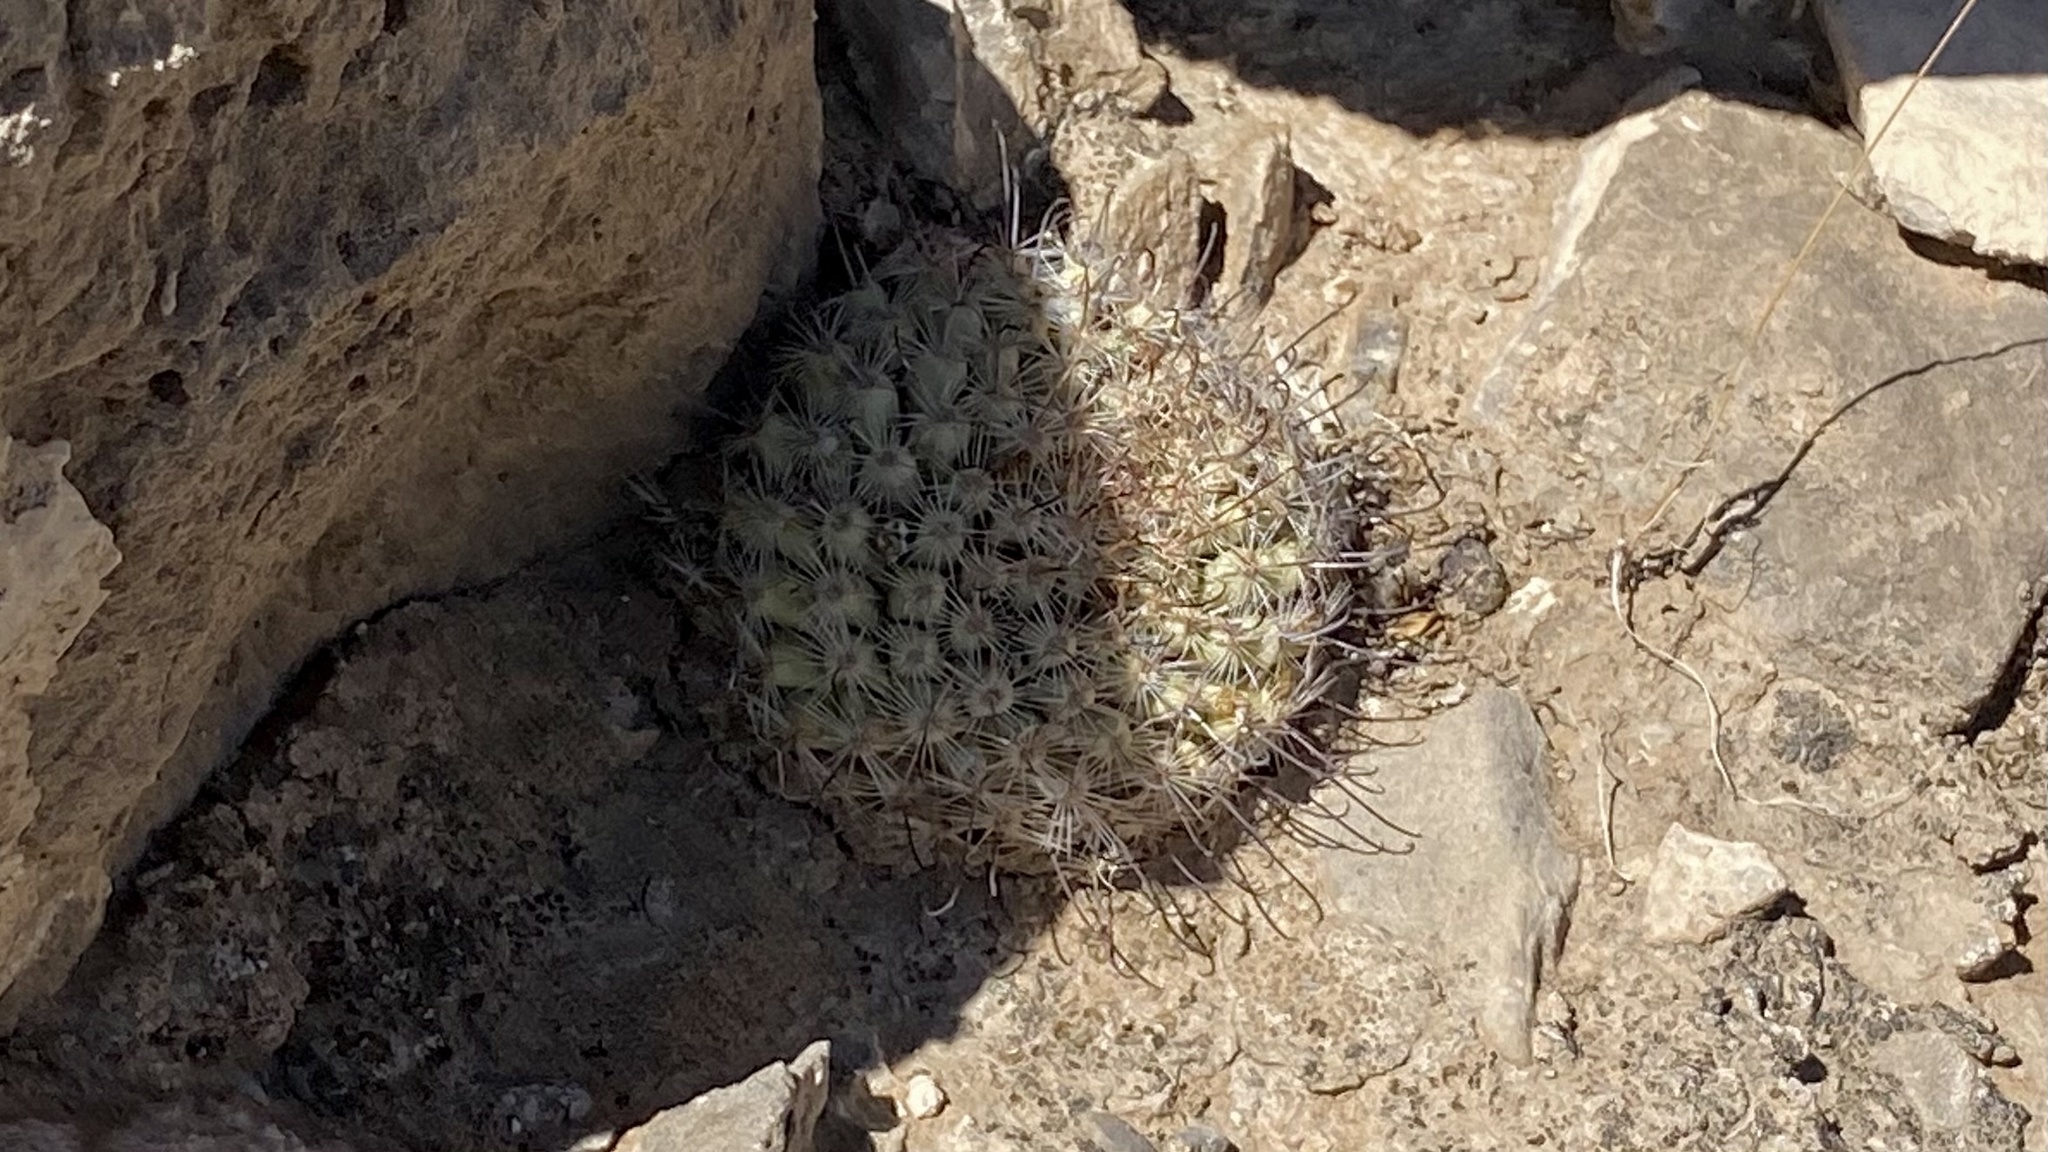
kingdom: Plantae
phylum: Tracheophyta
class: Magnoliopsida
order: Caryophyllales
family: Cactaceae
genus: Cochemiea
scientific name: Cochemiea grahamii
